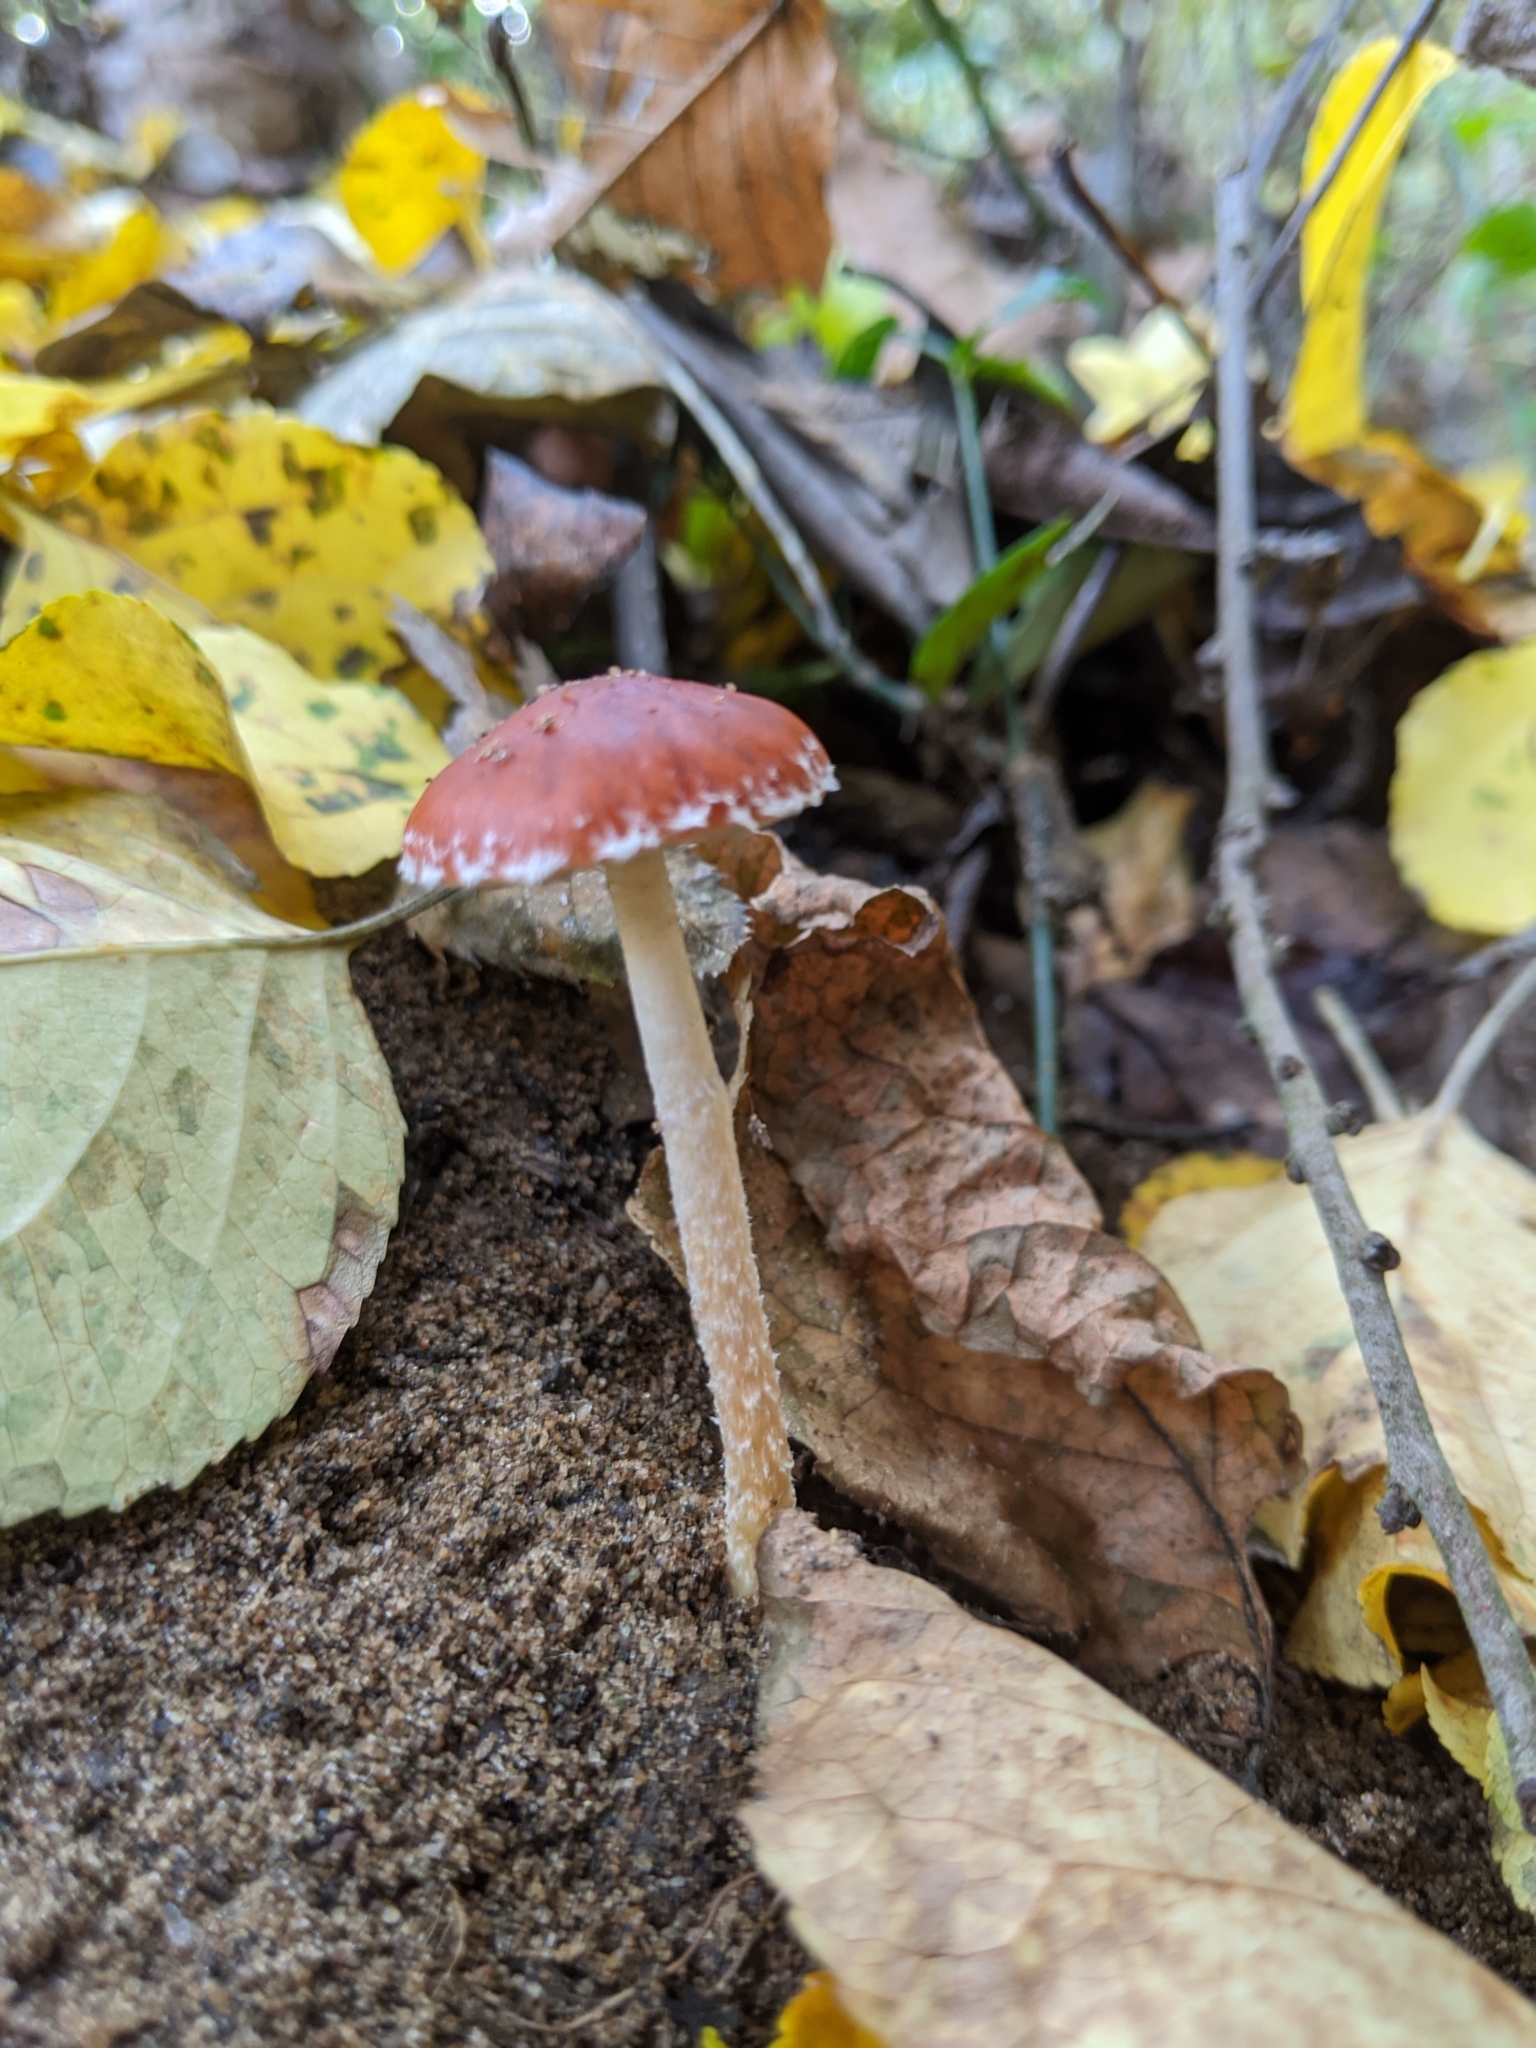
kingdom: Fungi
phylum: Basidiomycota
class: Agaricomycetes
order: Agaricales
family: Strophariaceae
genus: Leratiomyces
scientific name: Leratiomyces ceres
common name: Redlead roundhead
